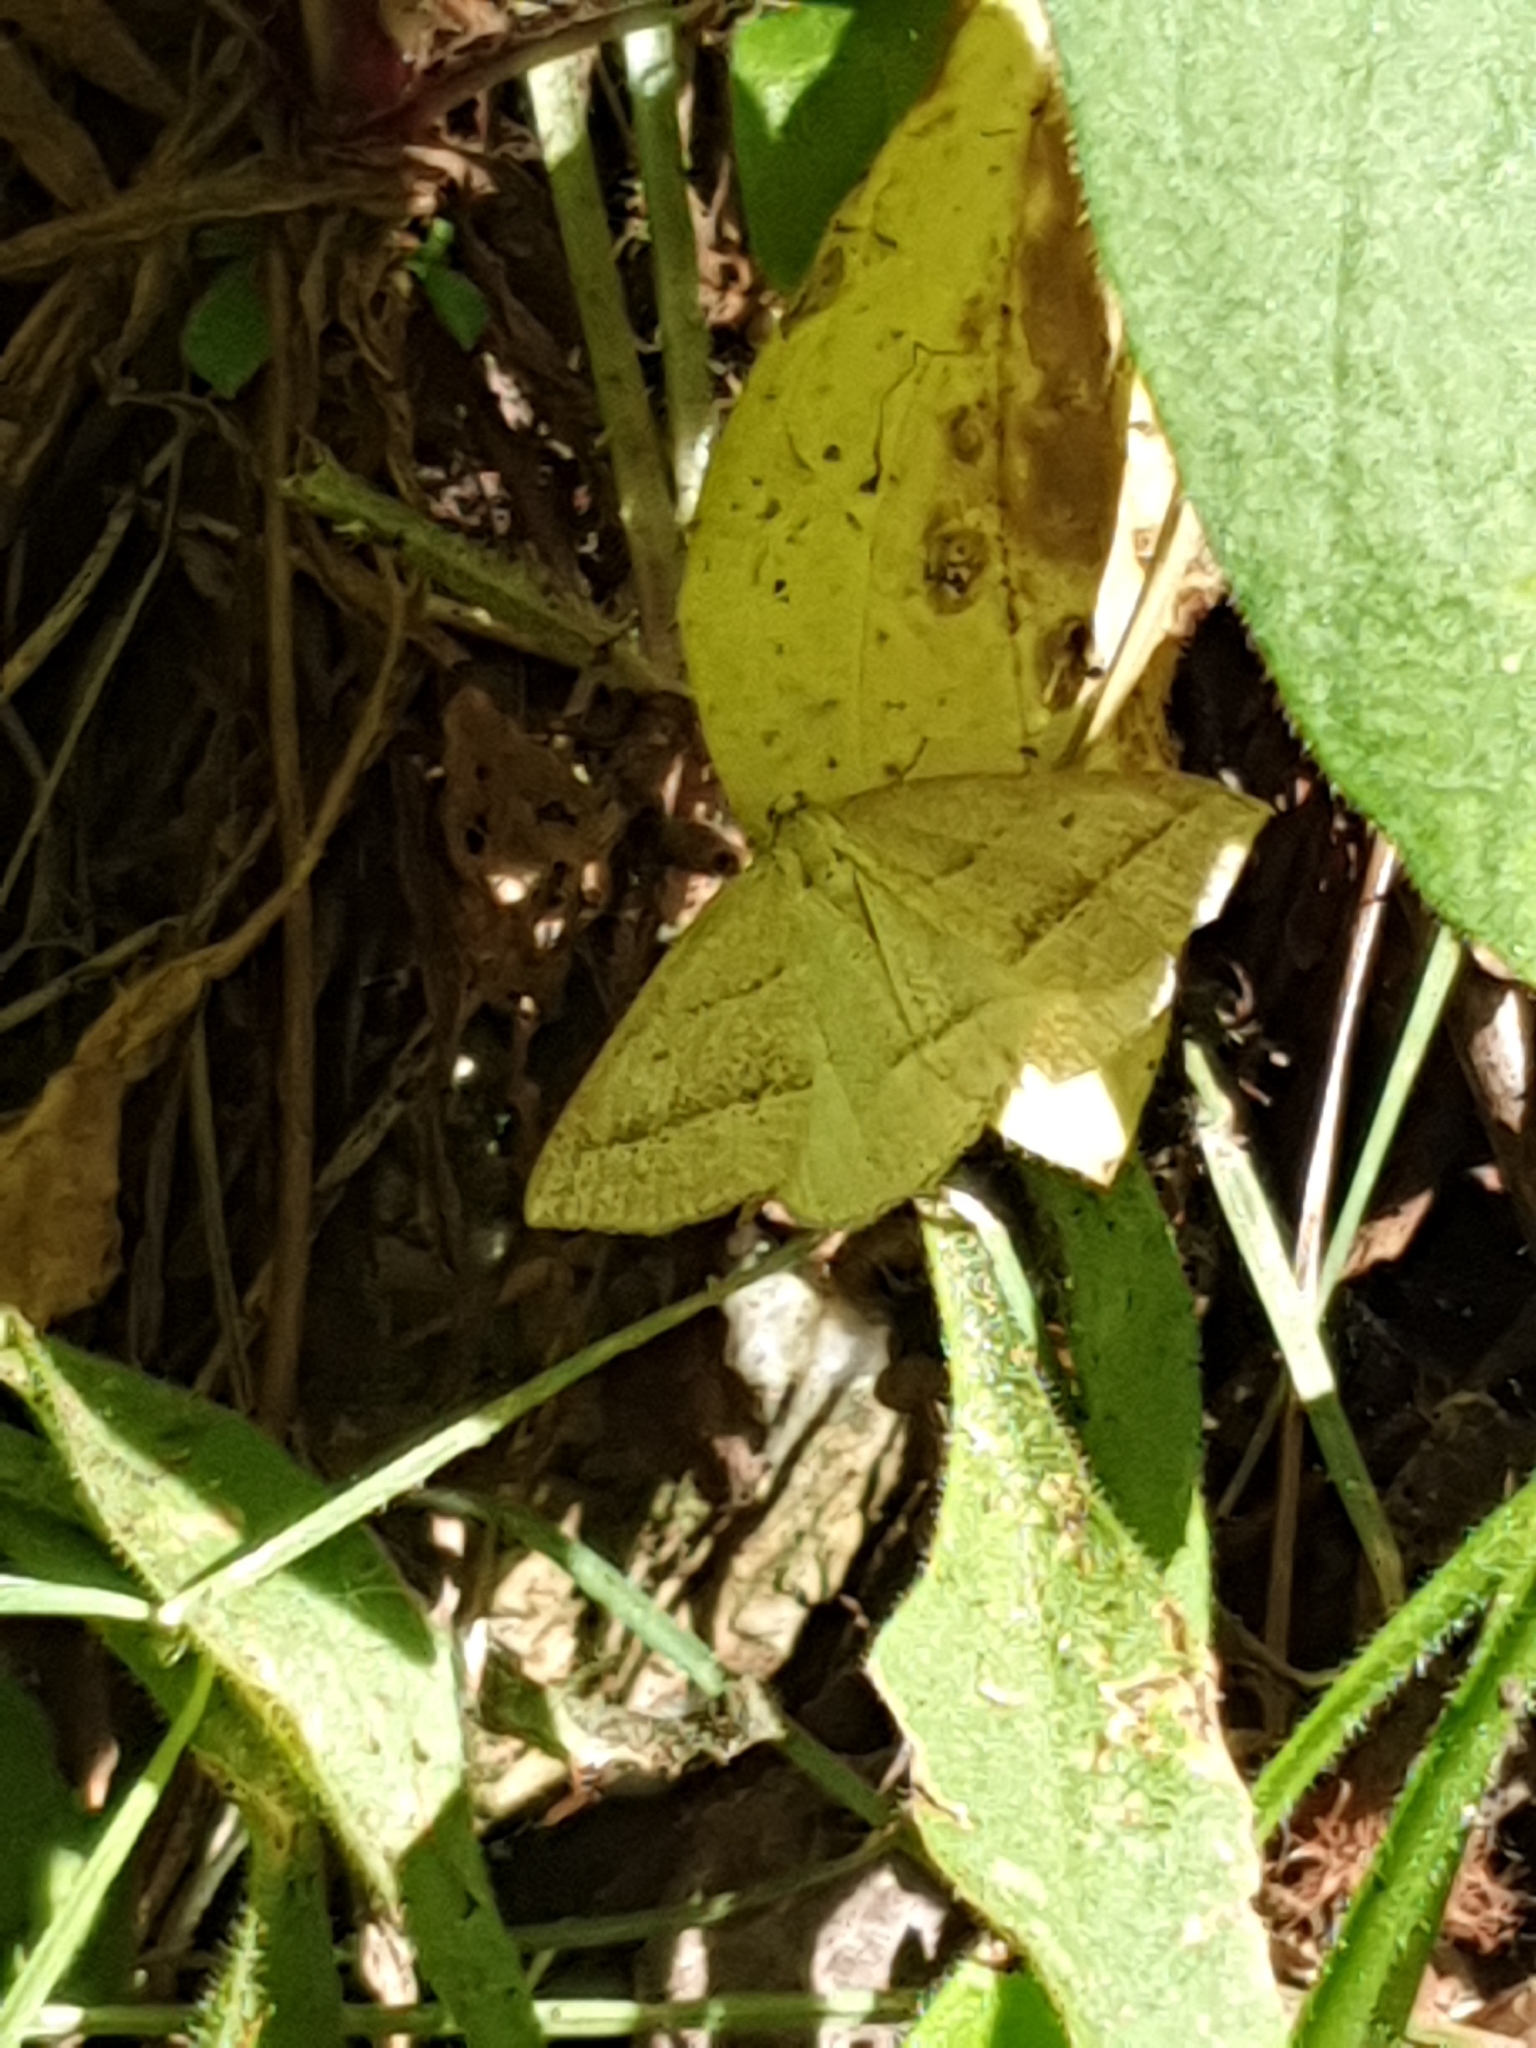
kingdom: Animalia
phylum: Arthropoda
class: Insecta
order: Lepidoptera
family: Pterophoridae
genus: Pterophorus
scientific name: Pterophorus Petrophora chlorosata
